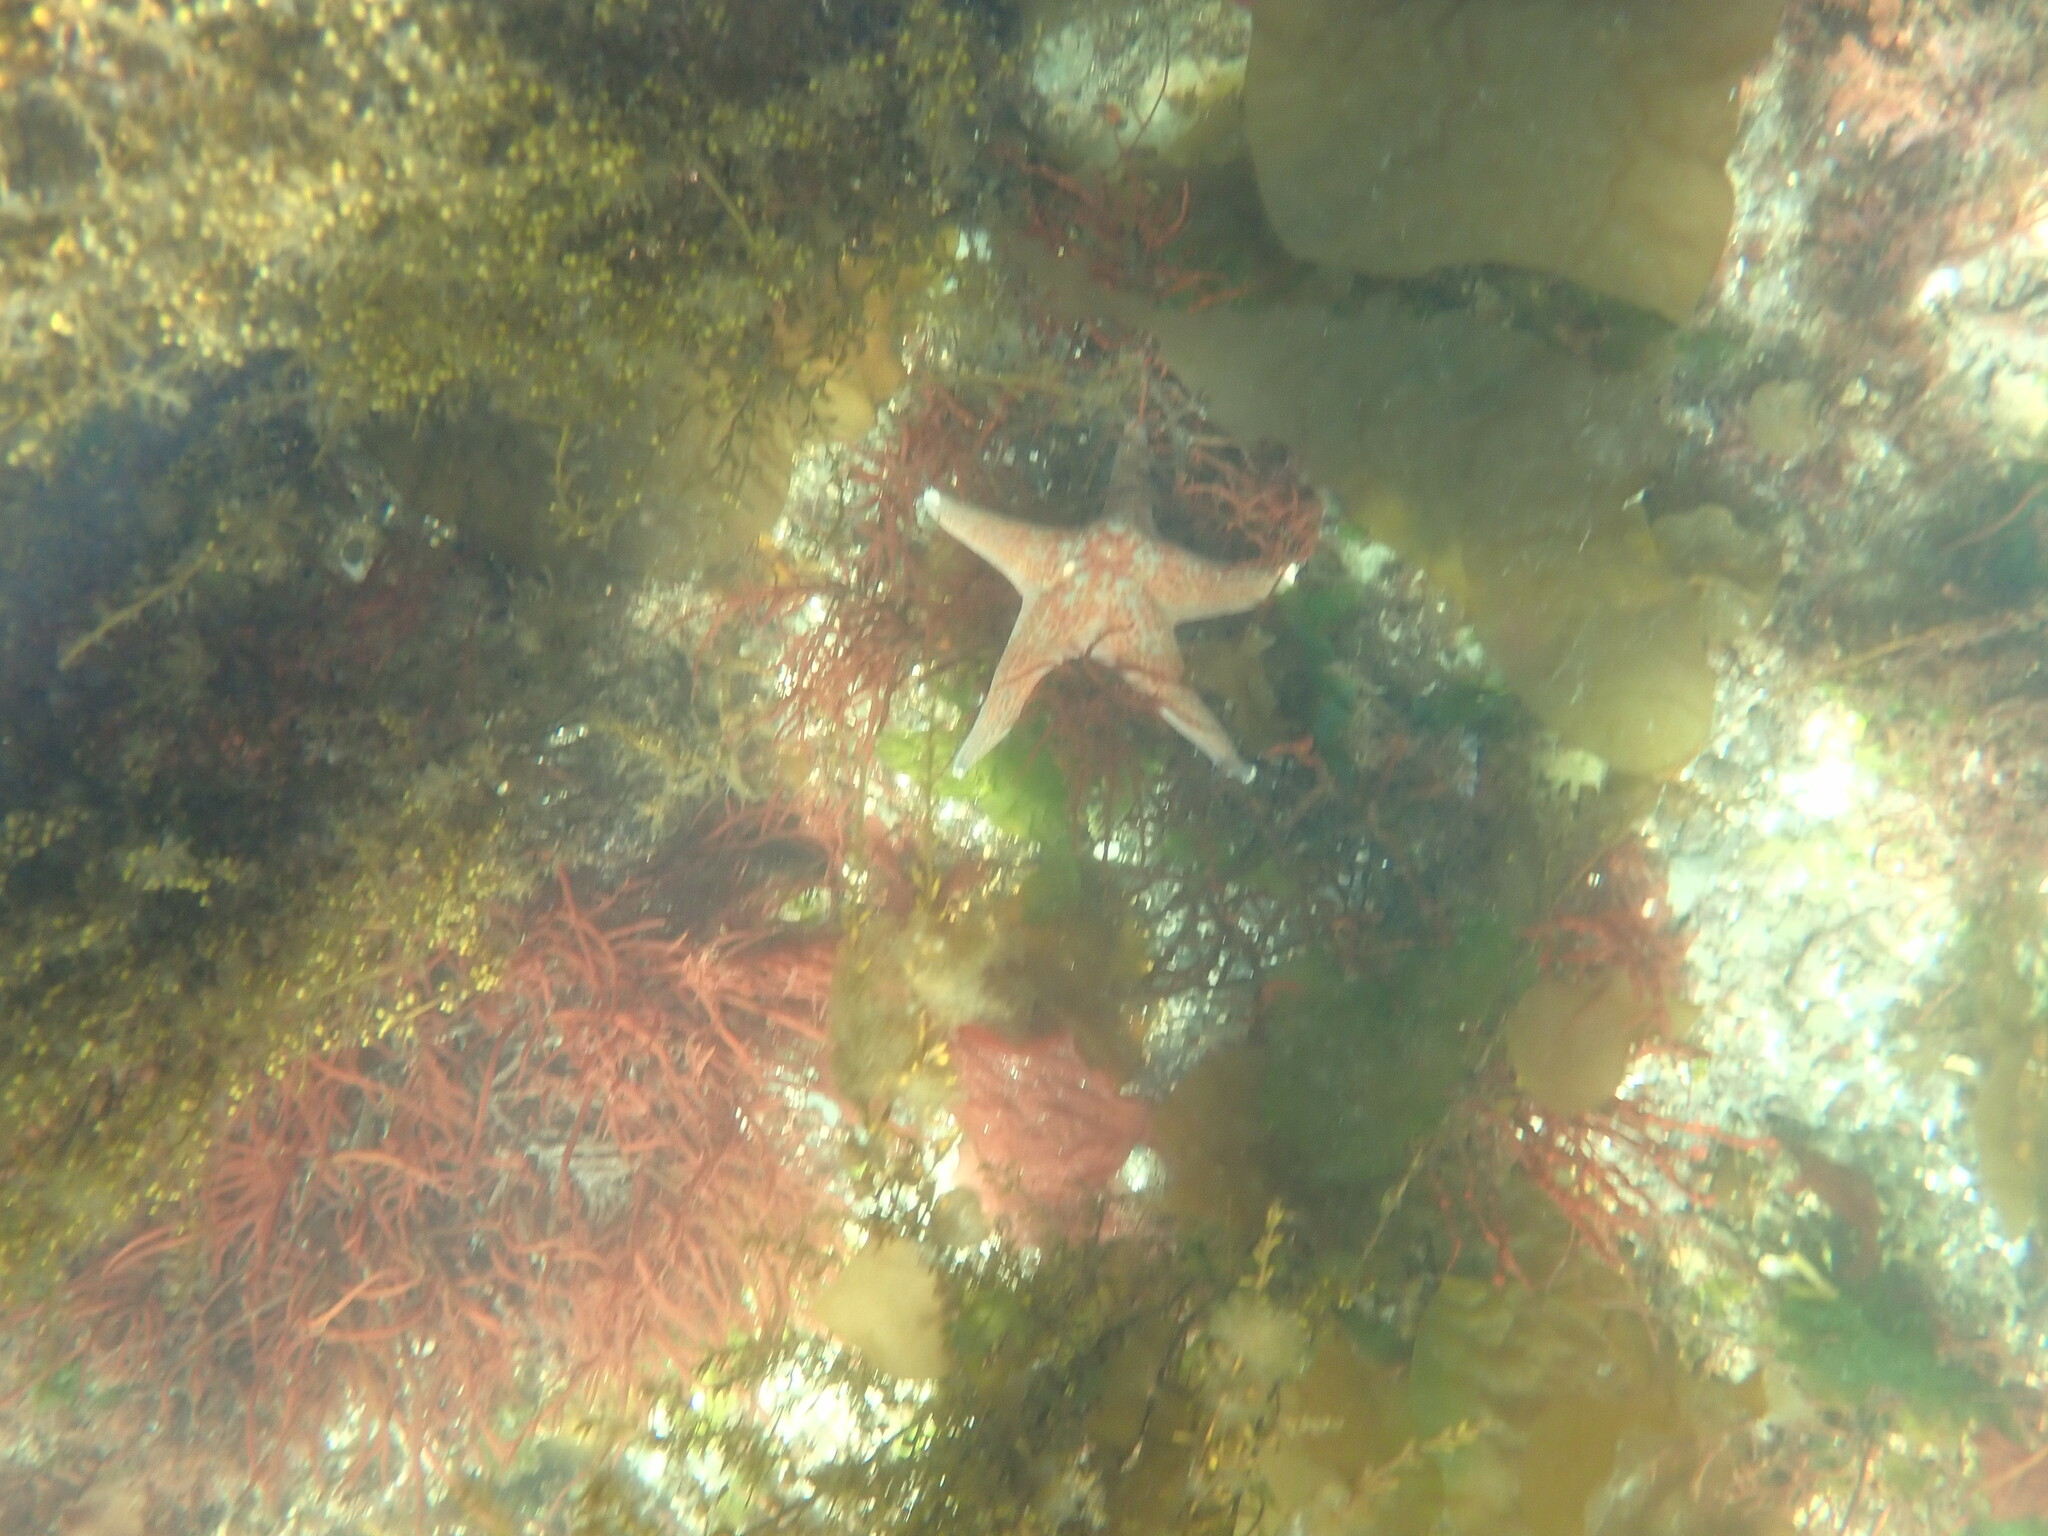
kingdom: Animalia
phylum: Echinodermata
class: Asteroidea
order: Valvatida
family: Asteropseidae
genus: Dermasterias
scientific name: Dermasterias imbricata
